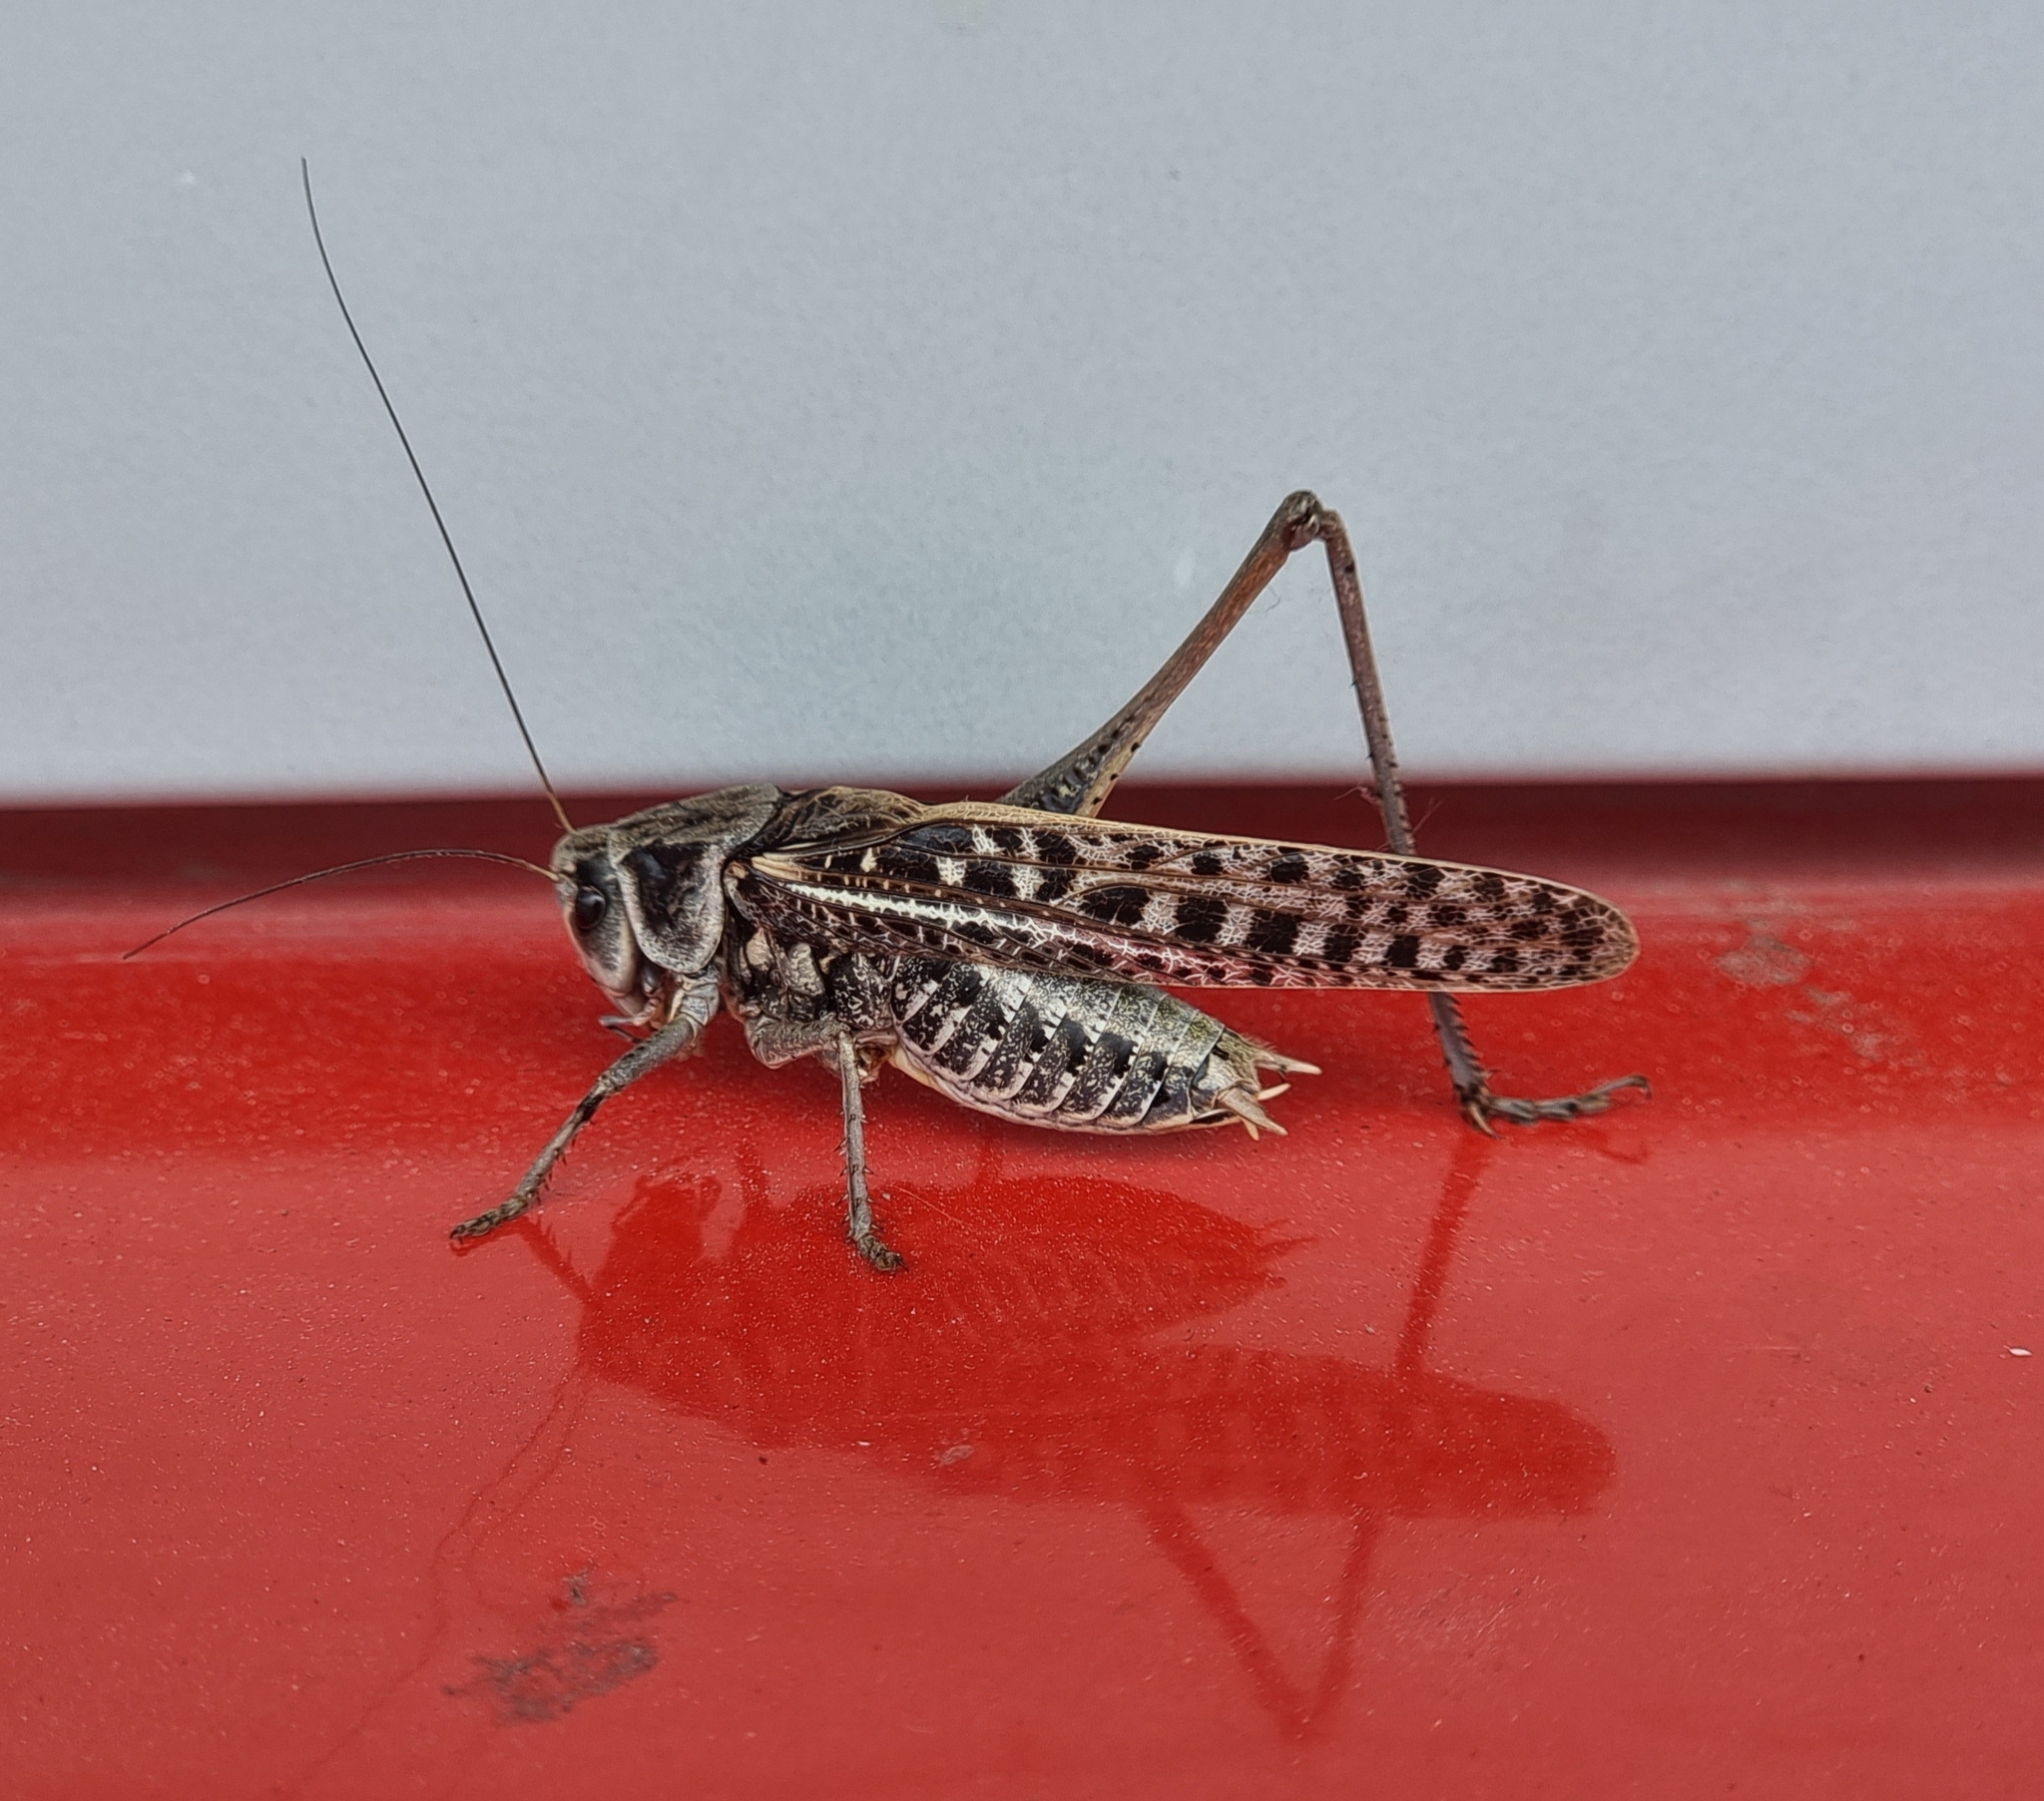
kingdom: Animalia
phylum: Arthropoda
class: Insecta
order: Orthoptera
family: Tettigoniidae
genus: Decticus
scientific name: Decticus verrucivorus
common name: Wart-biter
